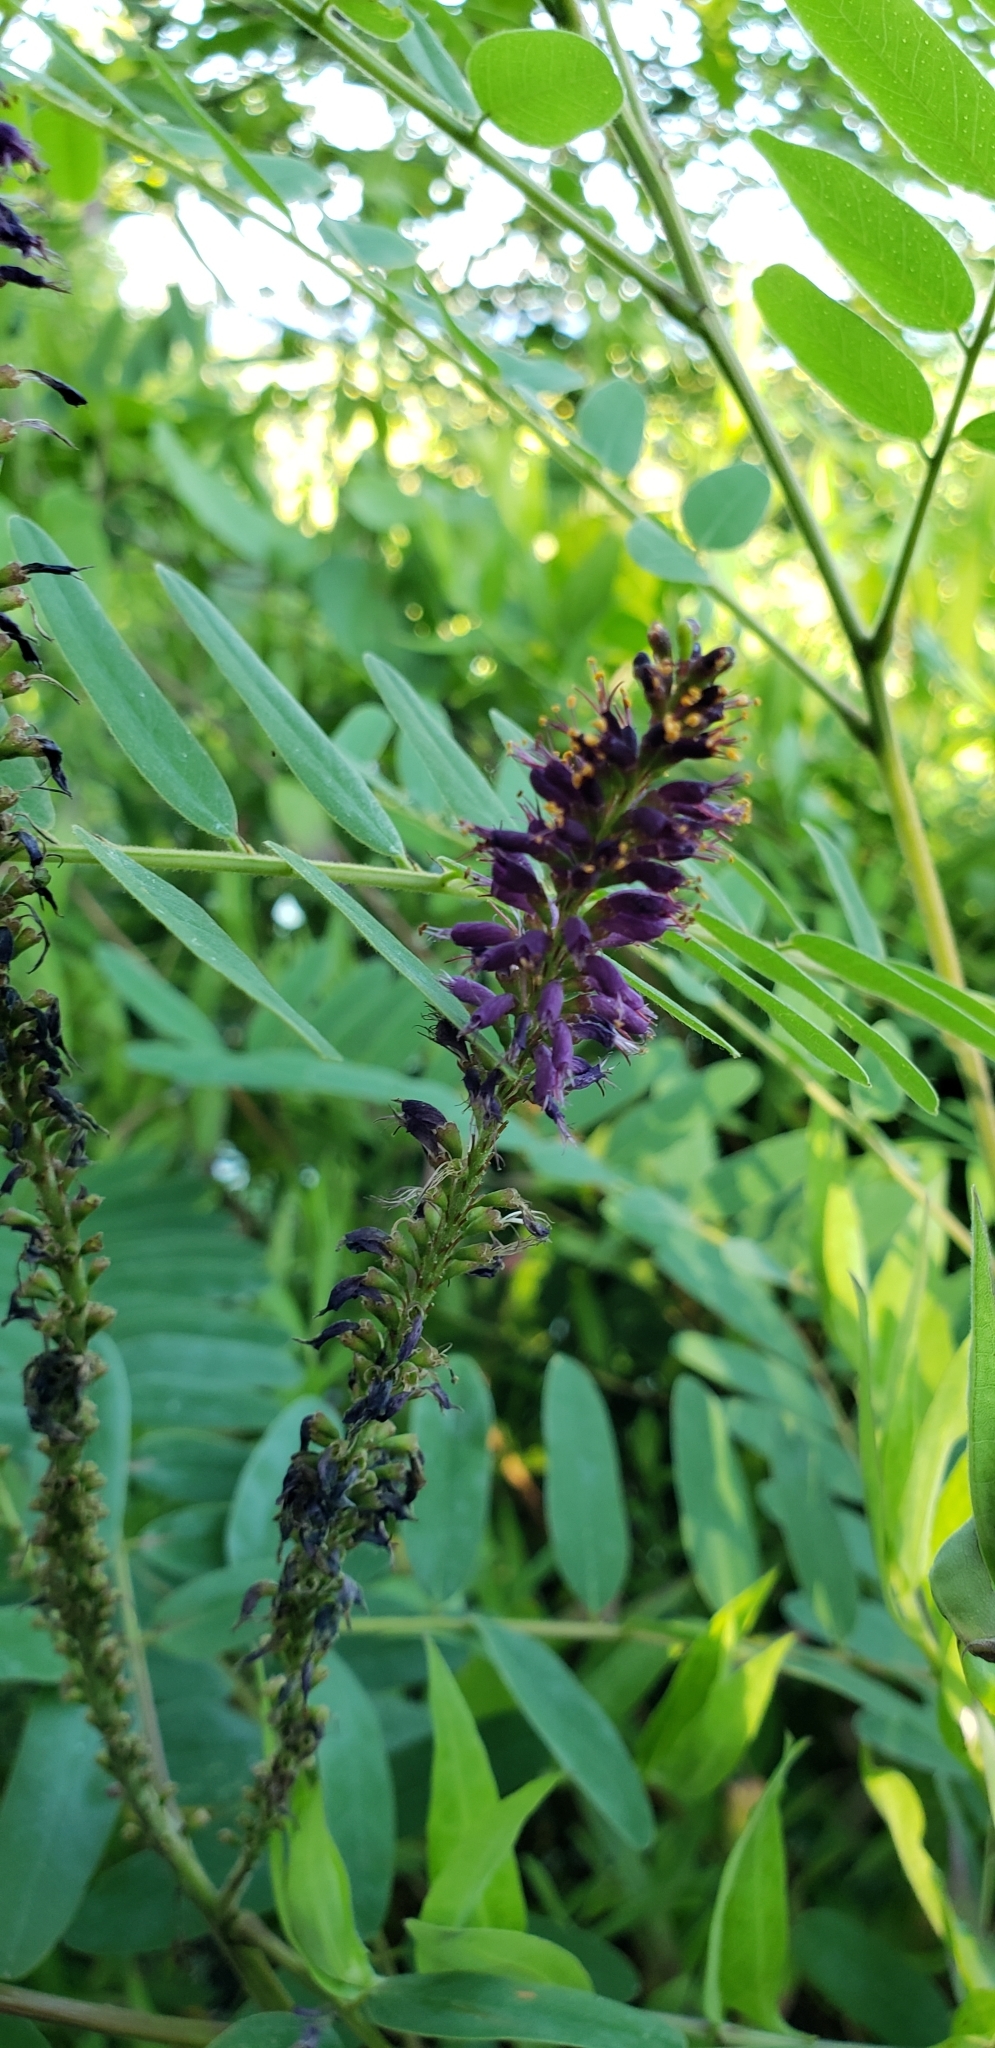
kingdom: Plantae
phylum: Tracheophyta
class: Magnoliopsida
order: Fabales
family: Fabaceae
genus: Amorpha
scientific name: Amorpha fruticosa
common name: False indigo
